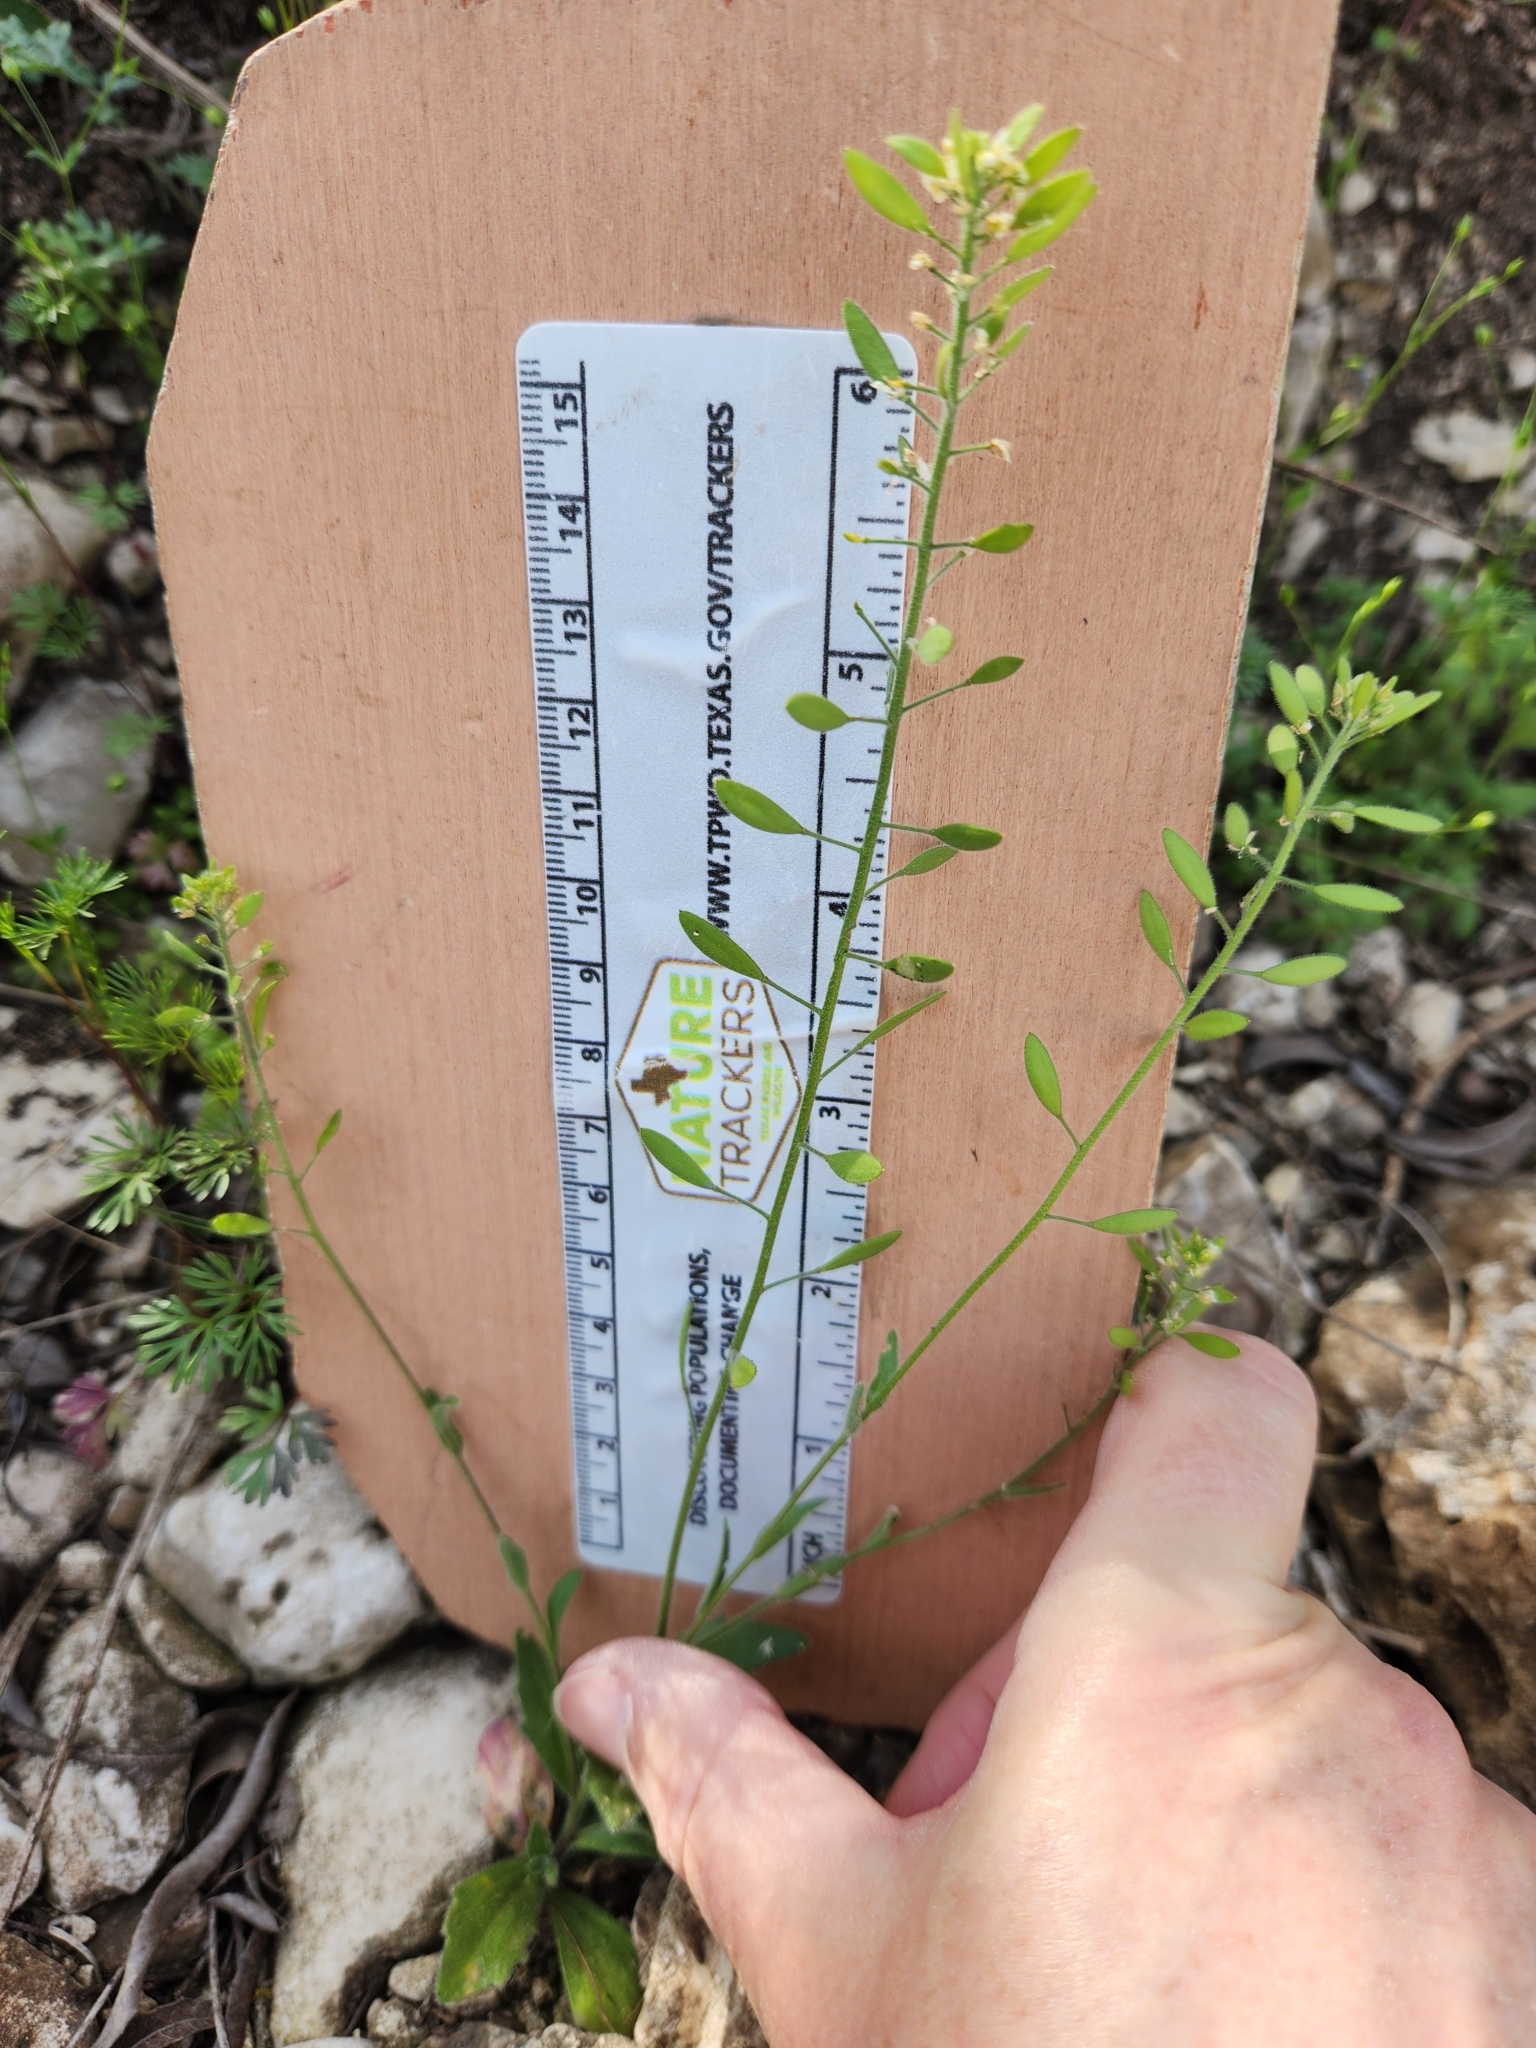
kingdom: Plantae
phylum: Tracheophyta
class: Magnoliopsida
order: Brassicales
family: Brassicaceae
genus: Tomostima
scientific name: Tomostima platycarpa
